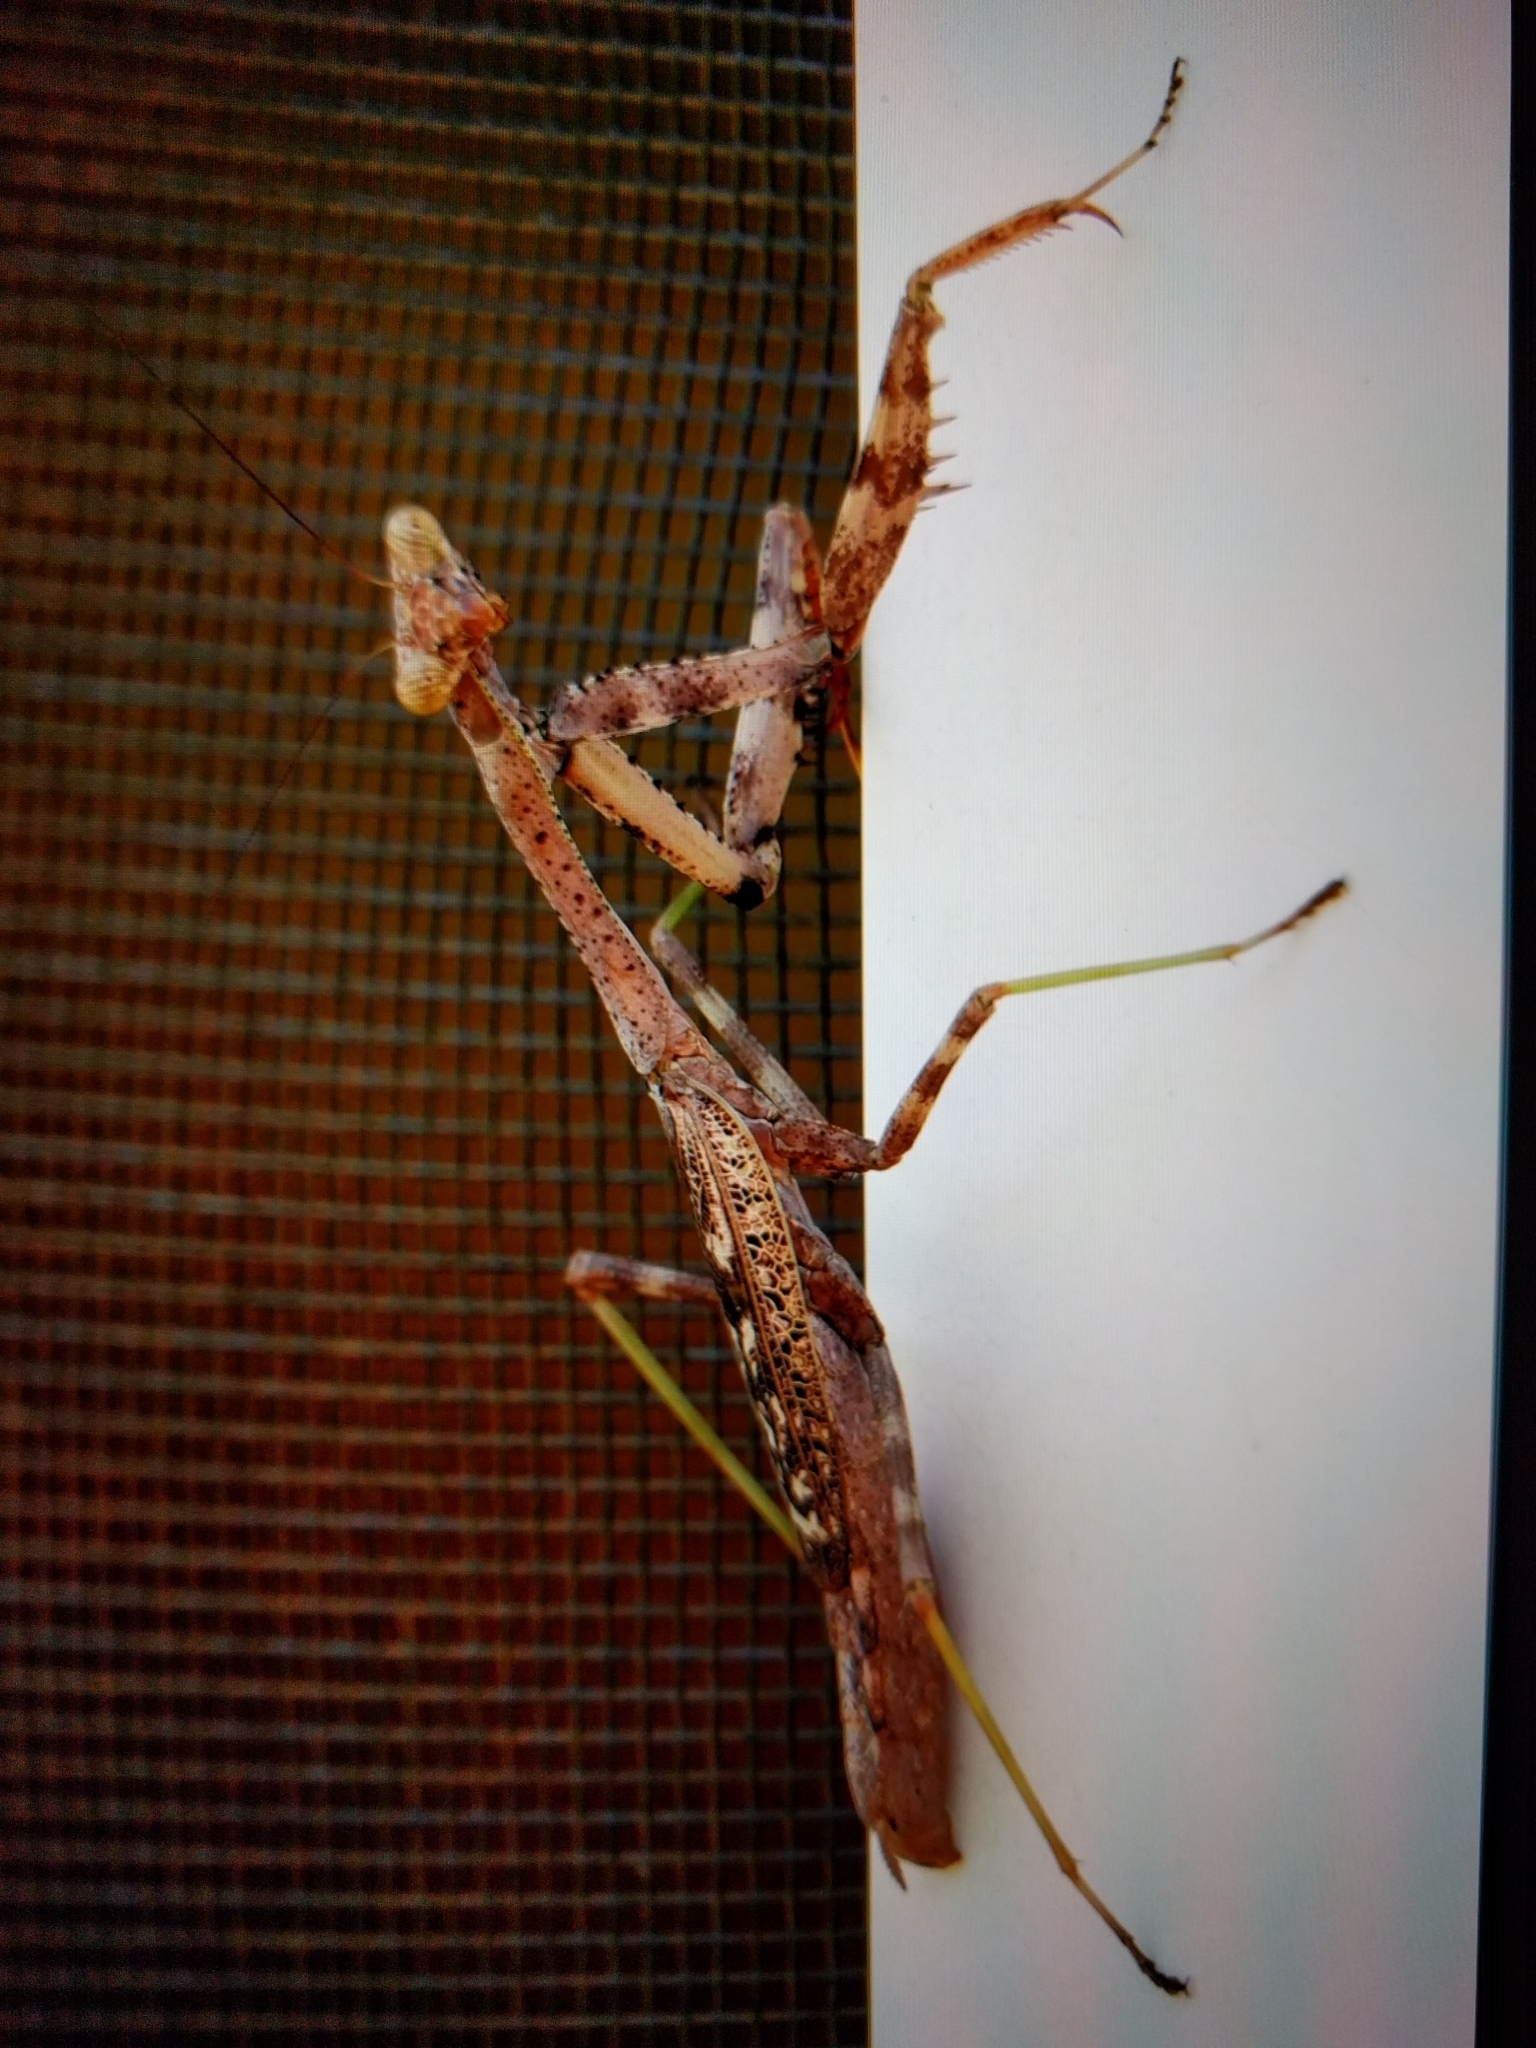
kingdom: Animalia
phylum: Arthropoda
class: Insecta
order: Mantodea
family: Mantidae
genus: Stagmomantis
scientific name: Stagmomantis carolina
